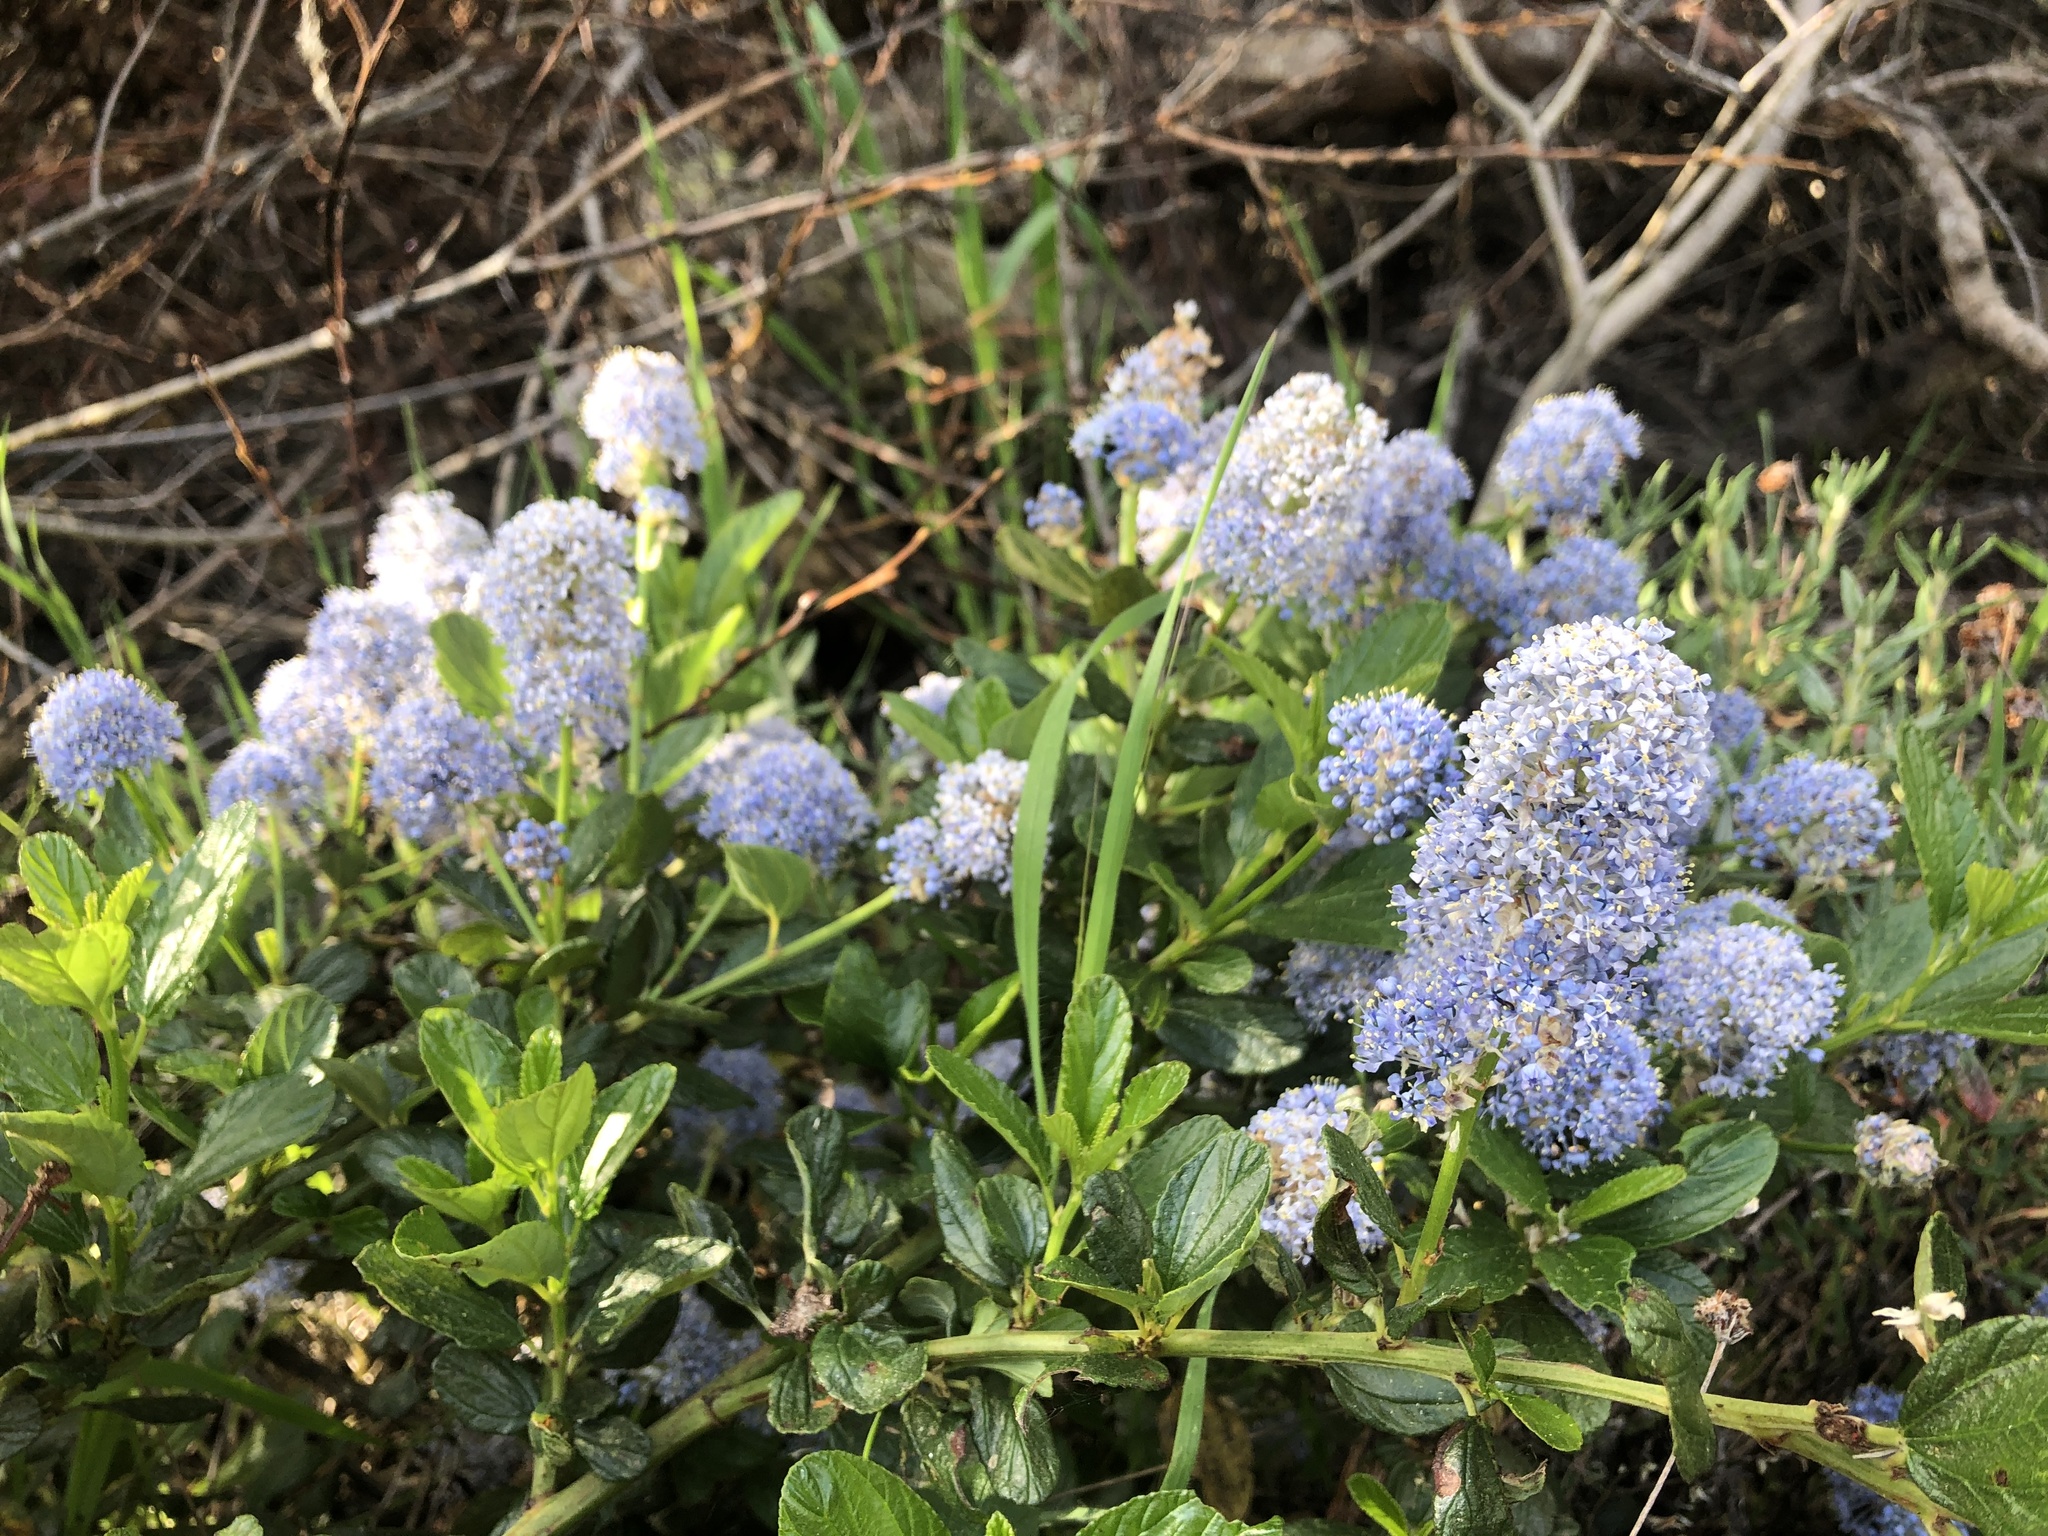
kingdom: Plantae
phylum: Tracheophyta
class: Magnoliopsida
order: Rosales
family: Rhamnaceae
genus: Ceanothus
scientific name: Ceanothus thyrsiflorus
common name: California-lilac
